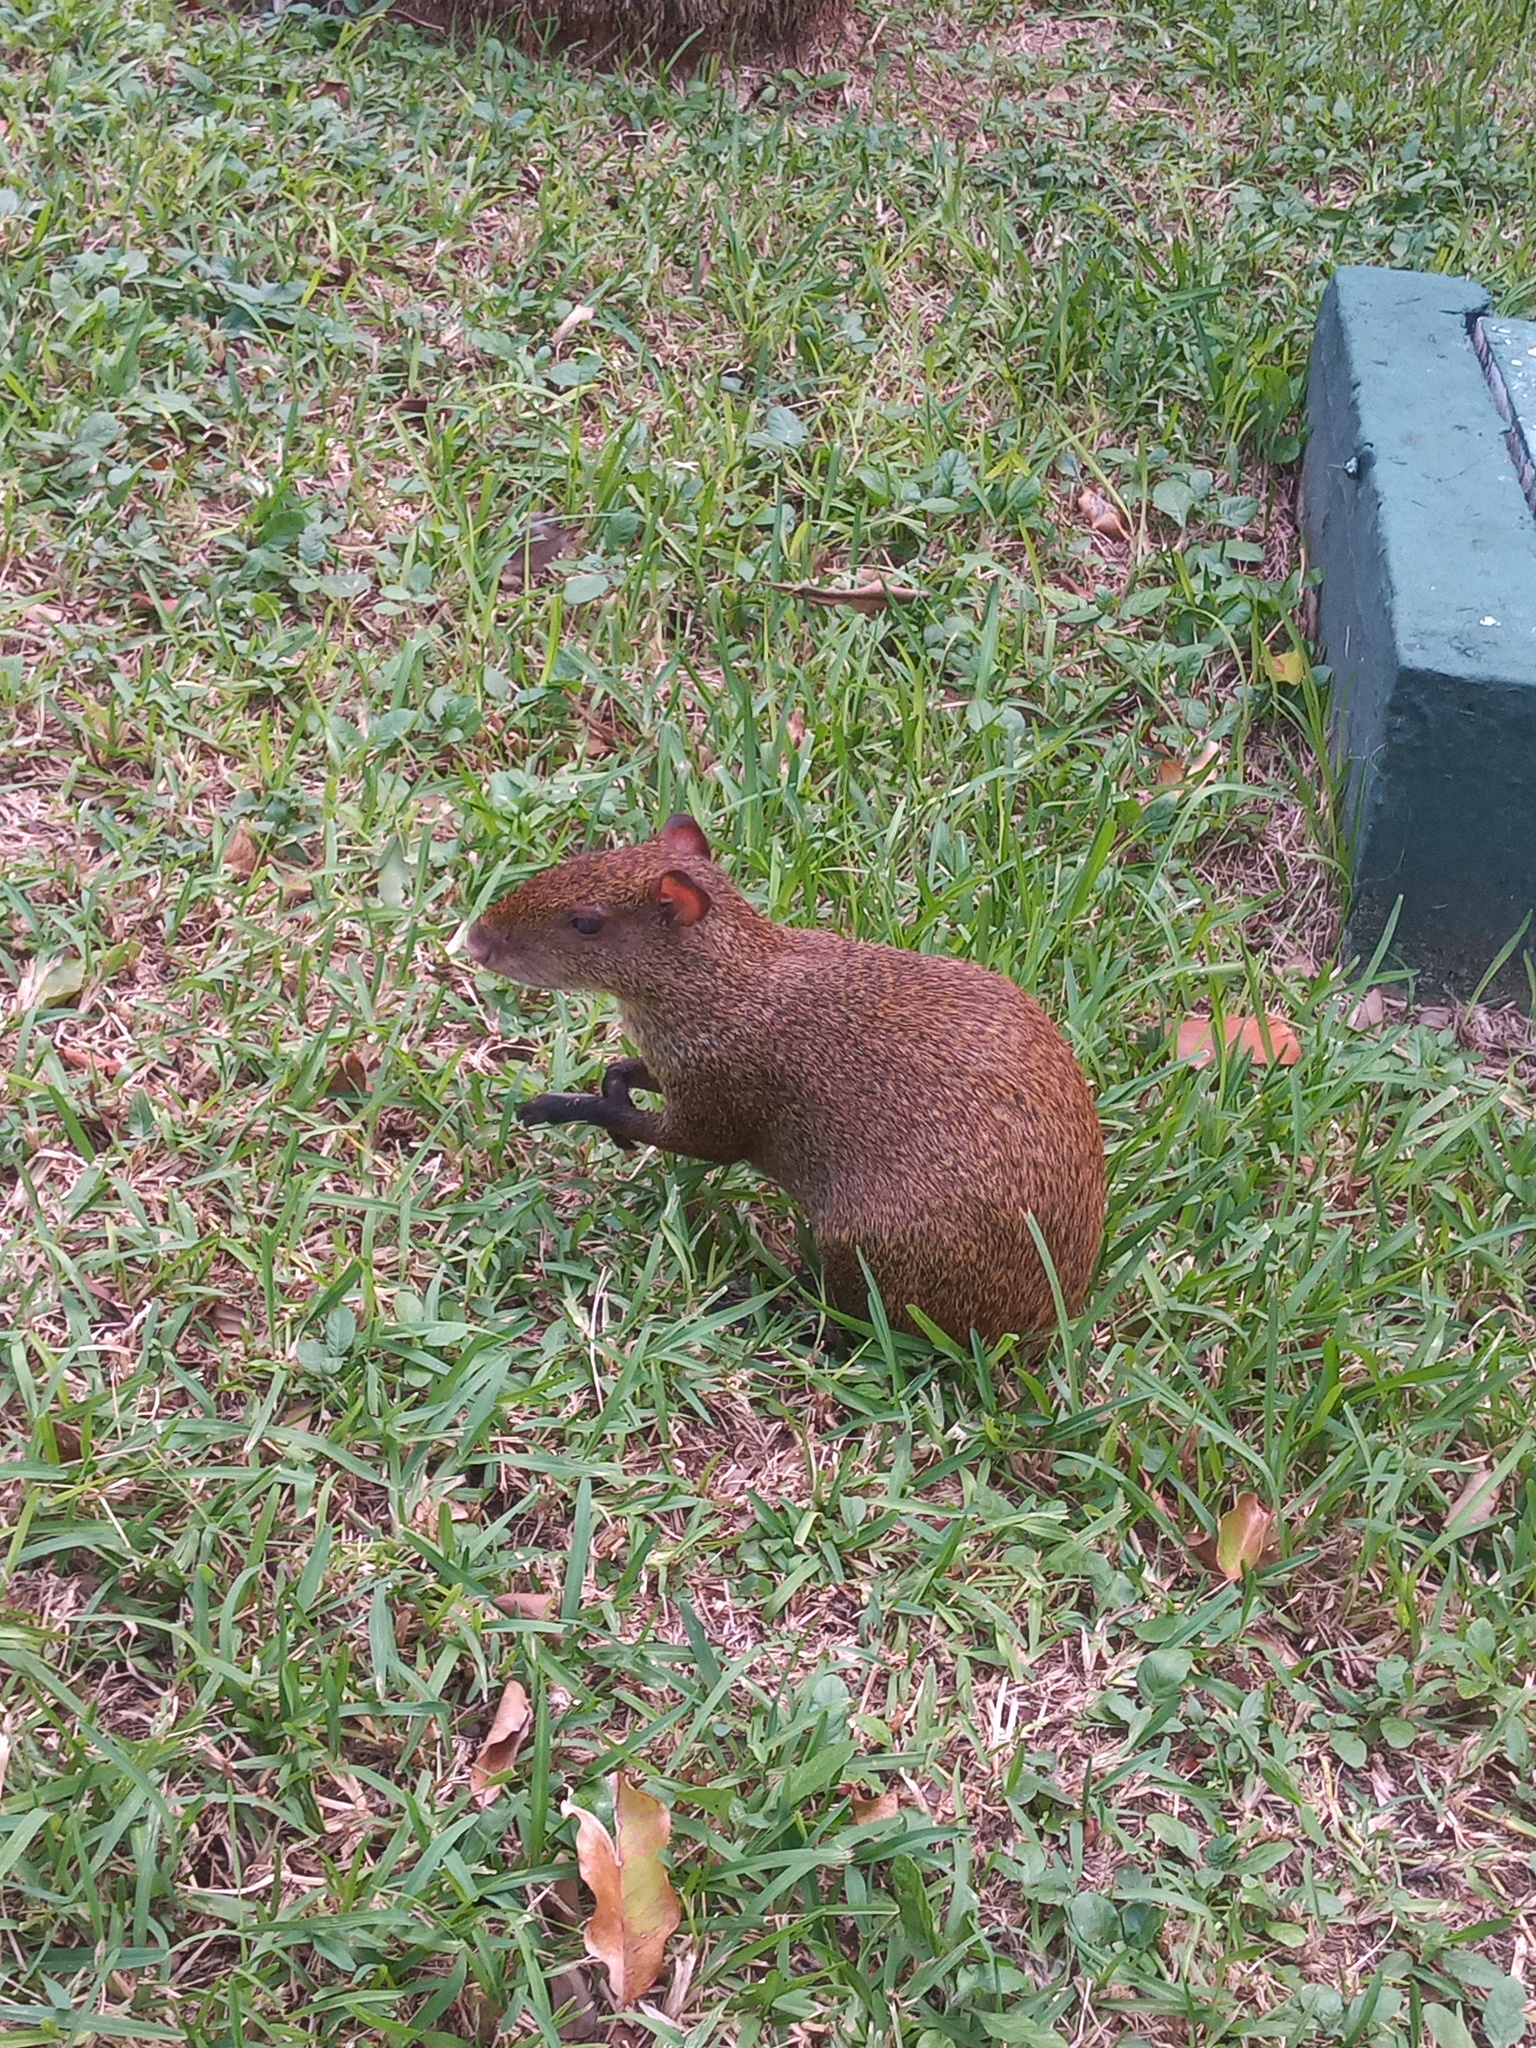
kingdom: Animalia
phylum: Chordata
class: Mammalia
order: Rodentia
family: Dasyproctidae
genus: Dasyprocta
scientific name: Dasyprocta punctata
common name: Central american agouti
